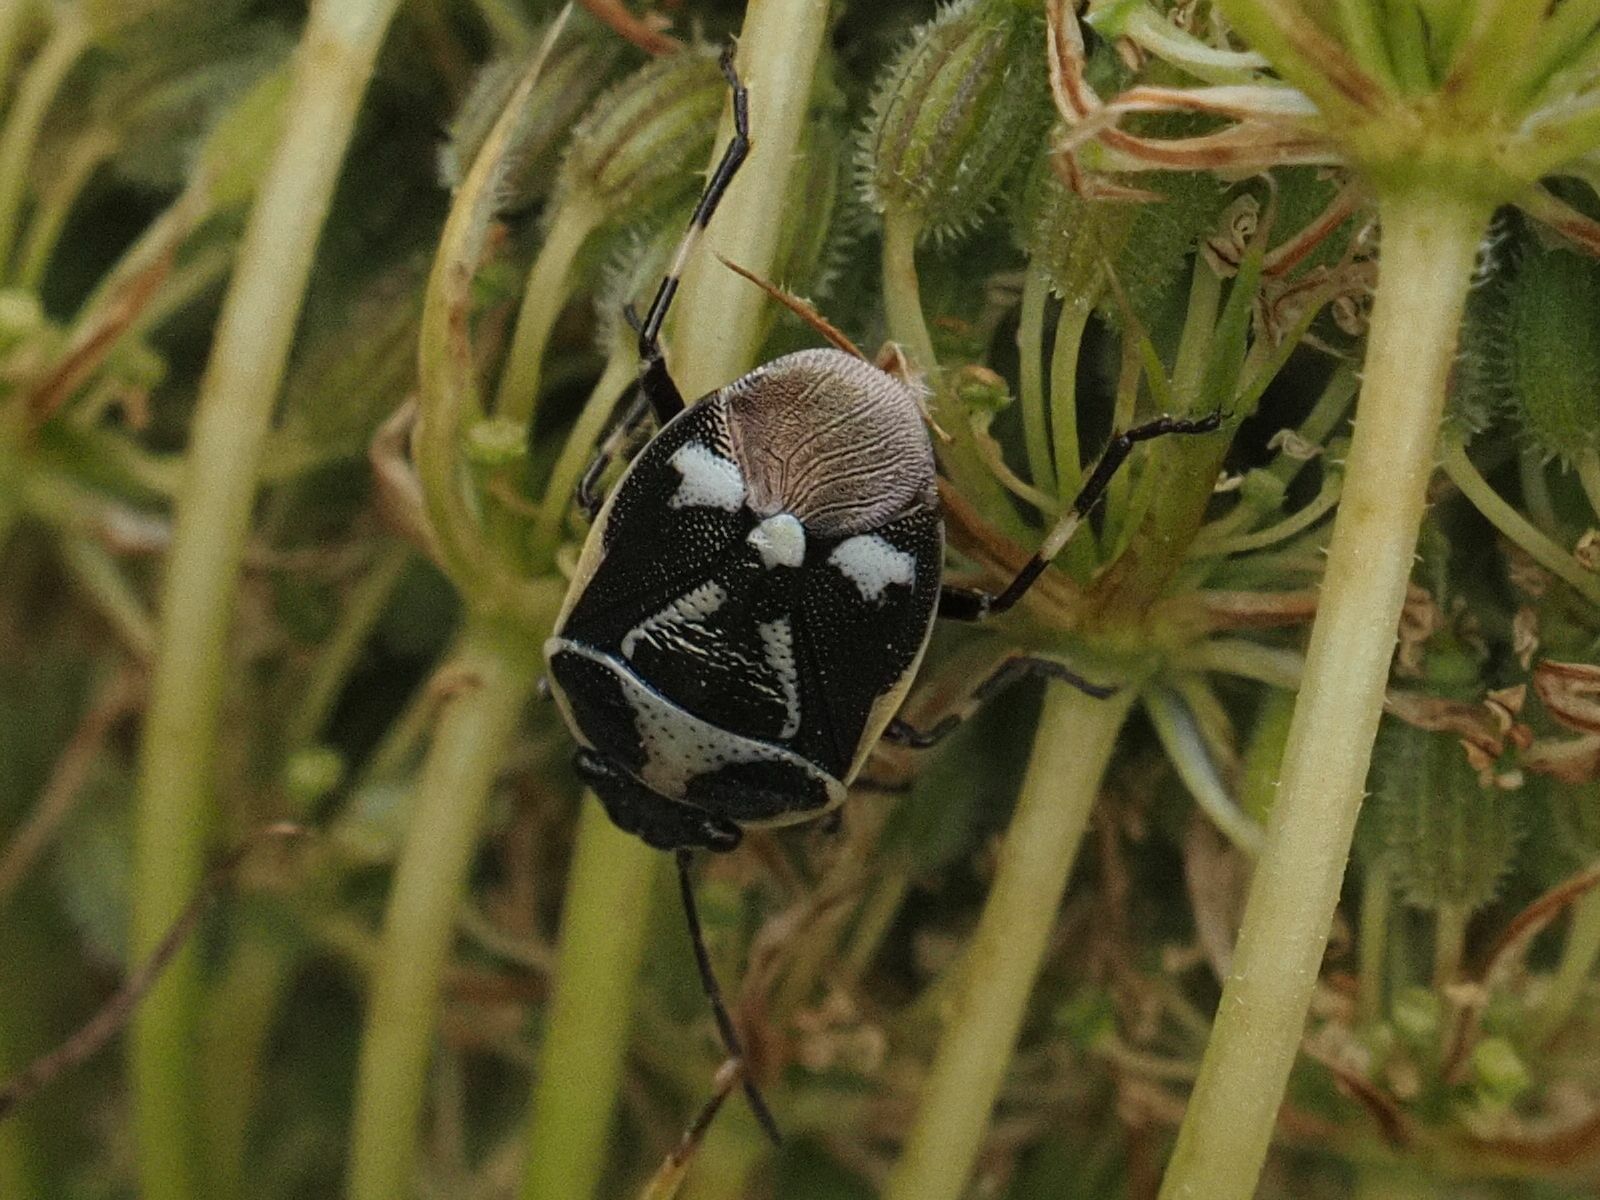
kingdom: Animalia
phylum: Arthropoda
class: Insecta
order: Hemiptera
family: Pentatomidae
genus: Eurydema
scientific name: Eurydema oleracea
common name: Cabbage bug
